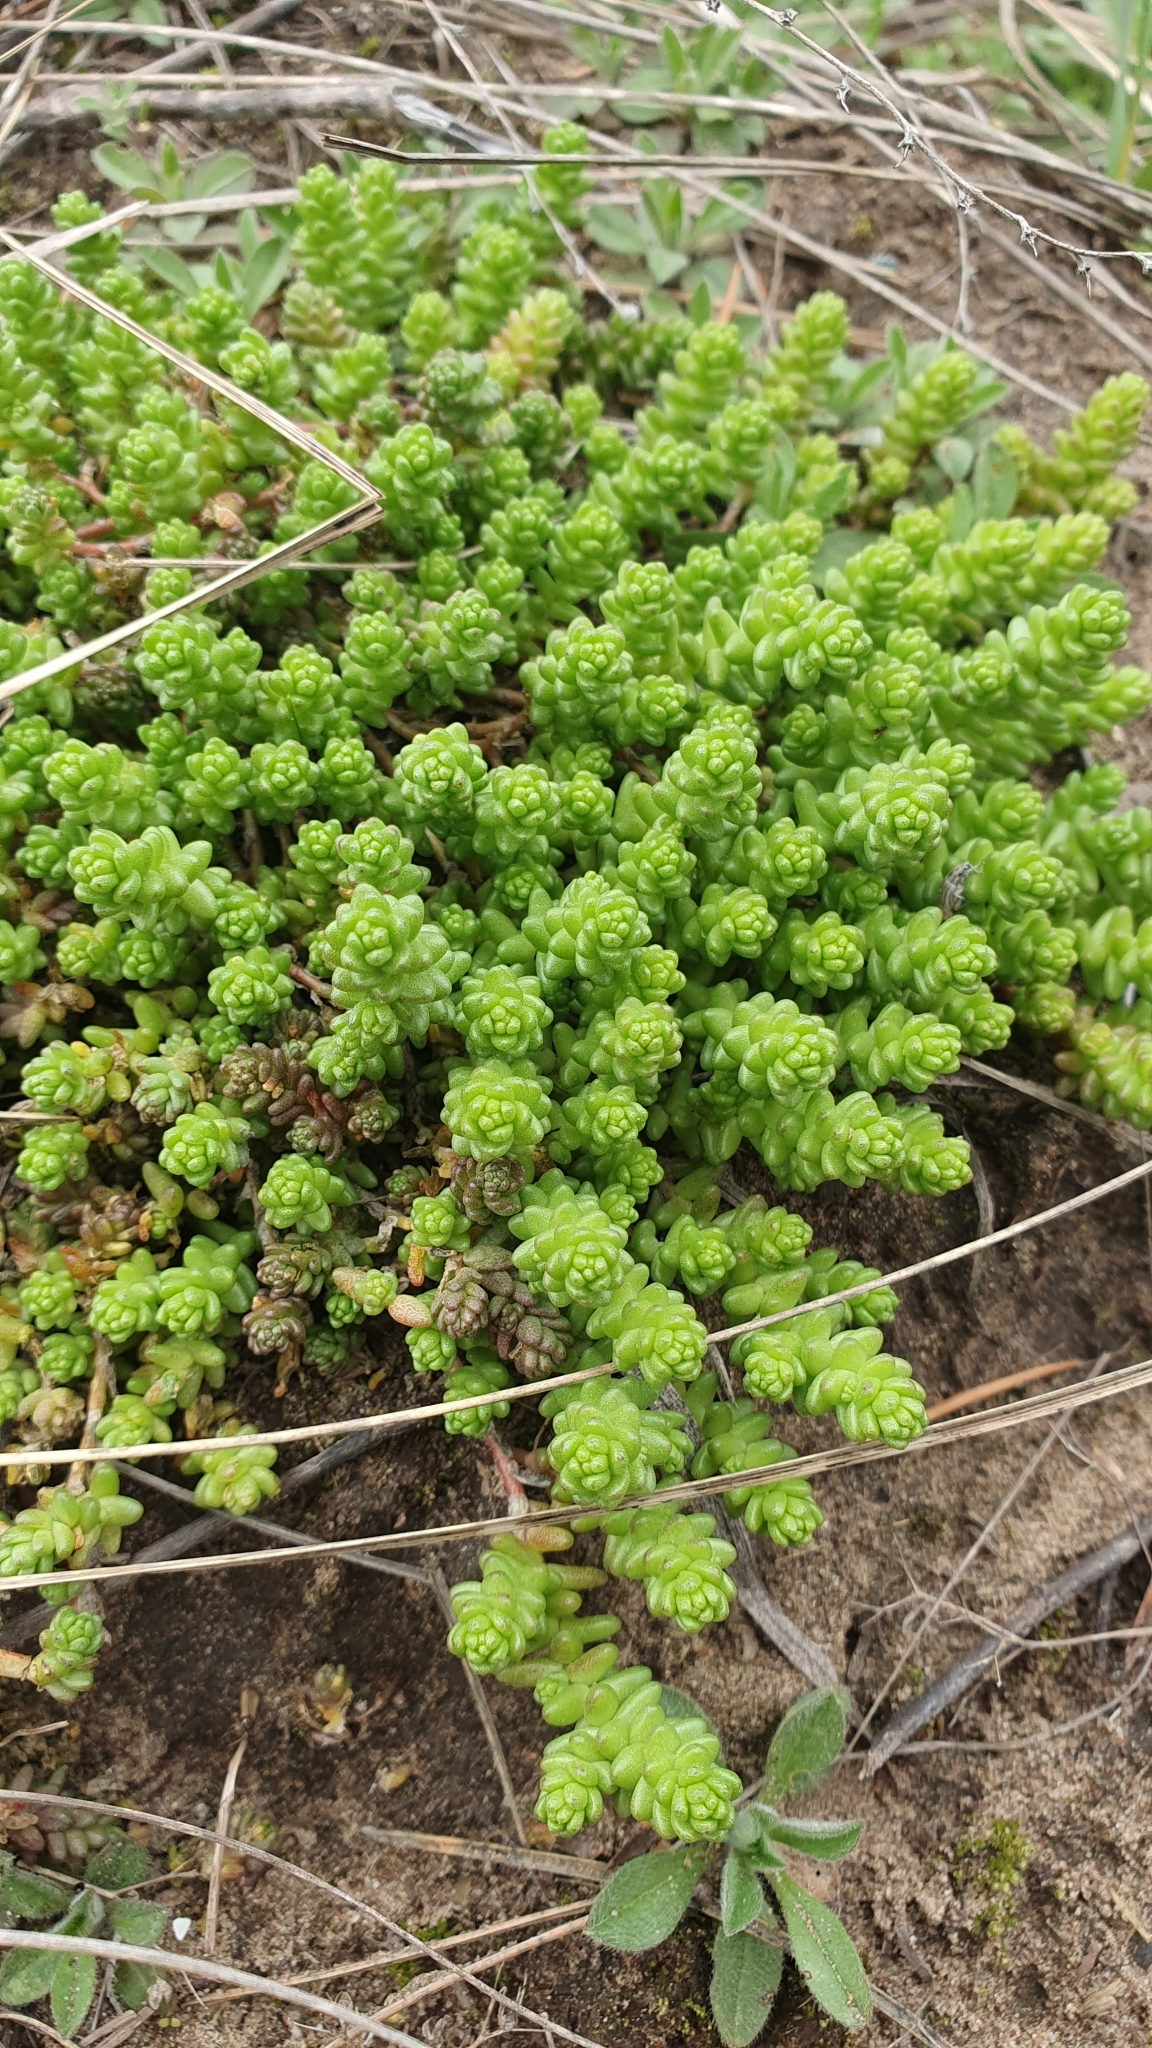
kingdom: Plantae
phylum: Tracheophyta
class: Magnoliopsida
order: Saxifragales
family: Crassulaceae
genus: Sedum
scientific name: Sedum acre
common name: Biting stonecrop
